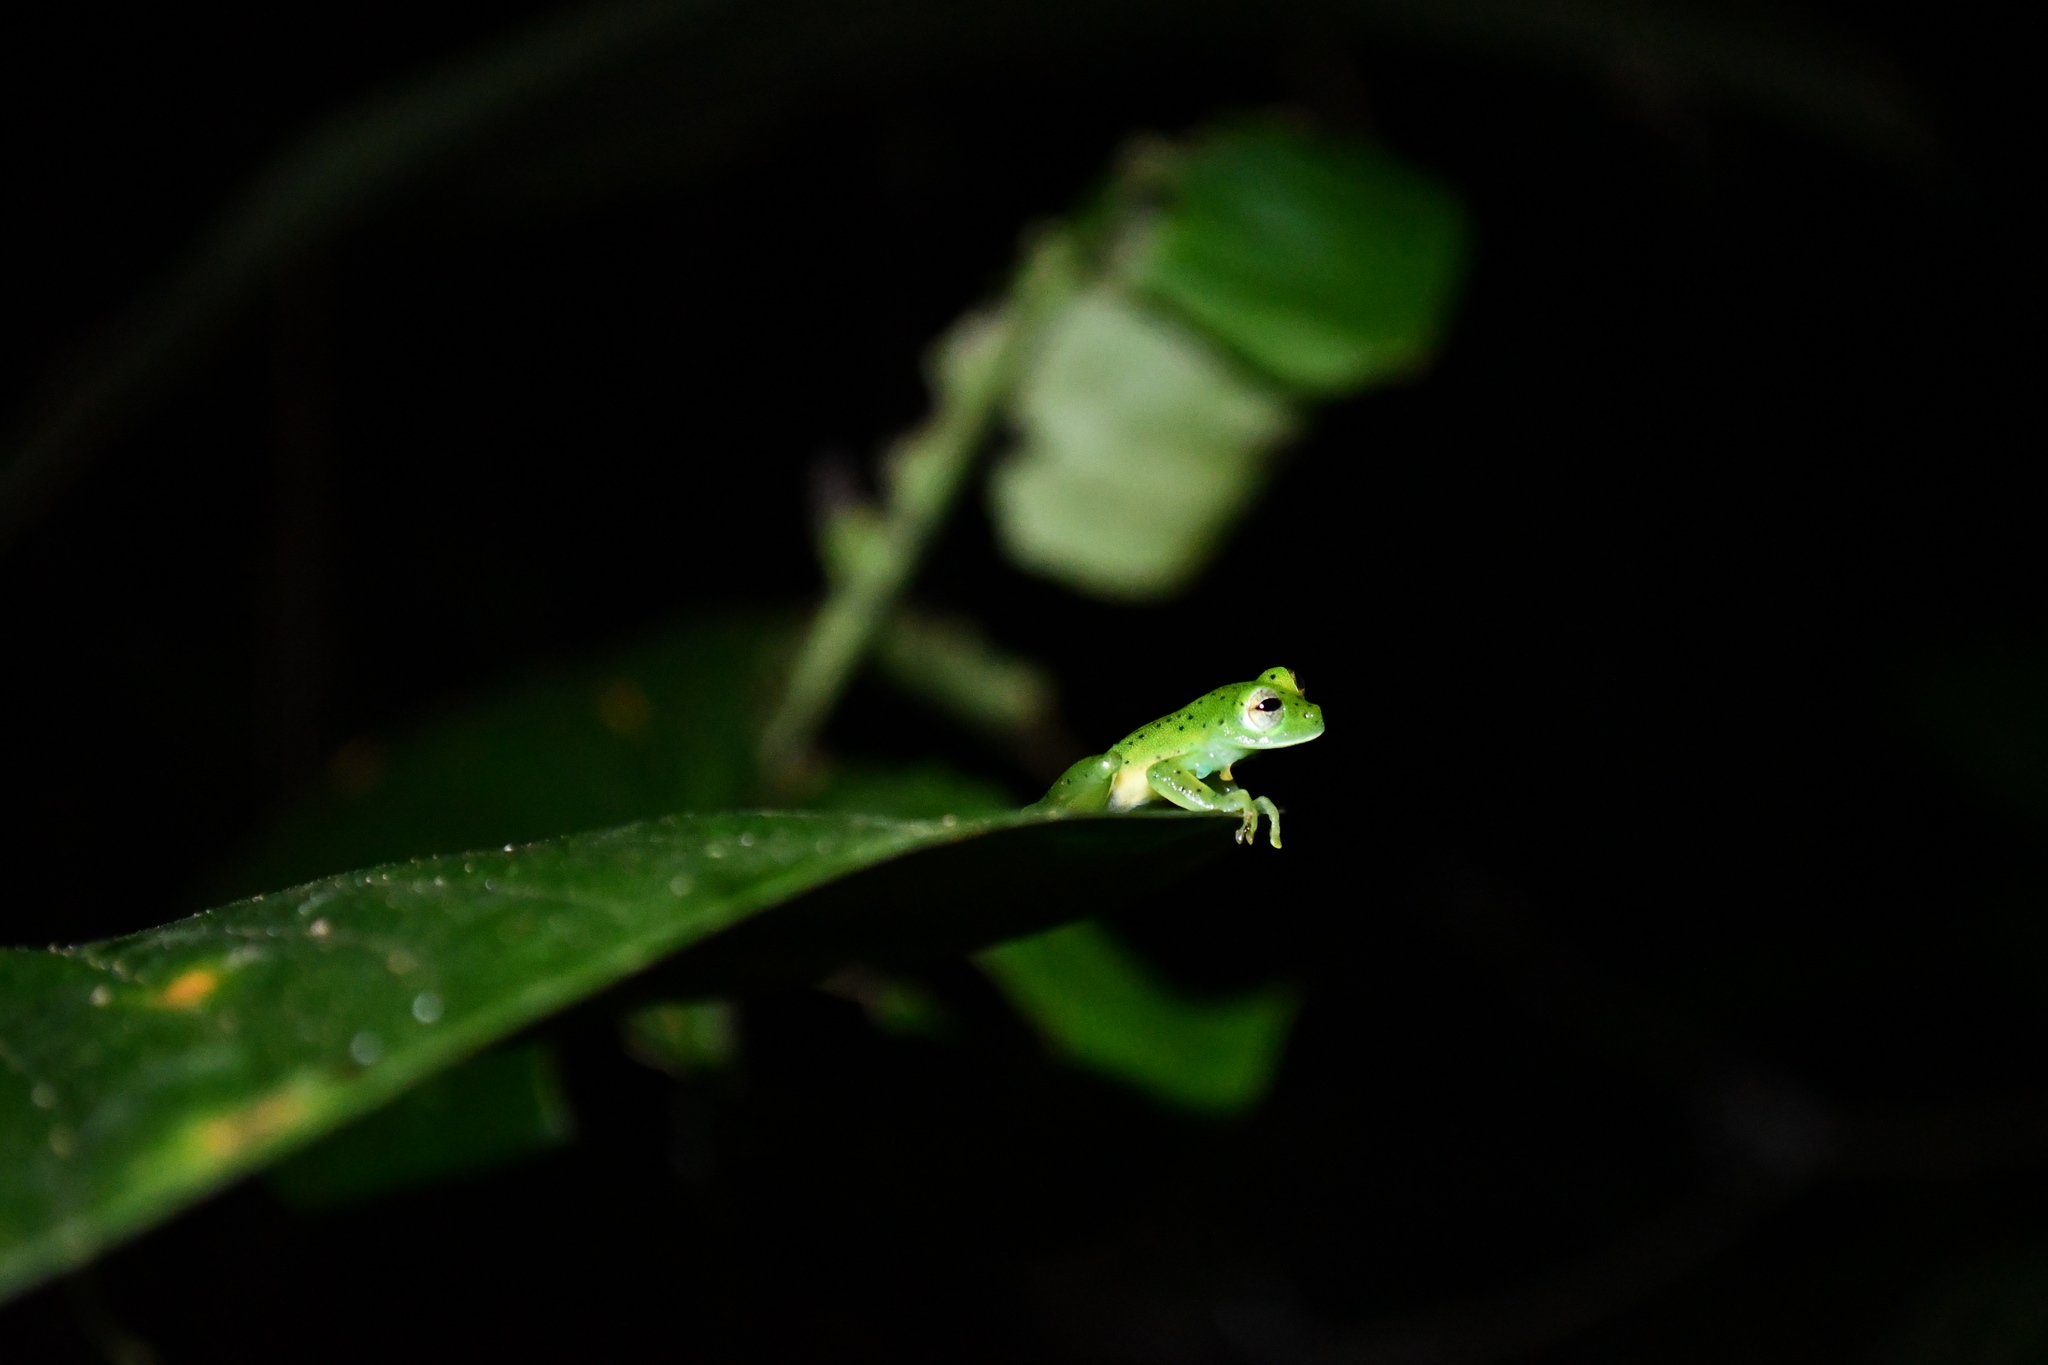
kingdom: Animalia
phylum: Chordata
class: Amphibia
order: Anura
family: Centrolenidae
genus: Espadarana
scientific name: Espadarana prosoblepon
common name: Rana de cristal variable
